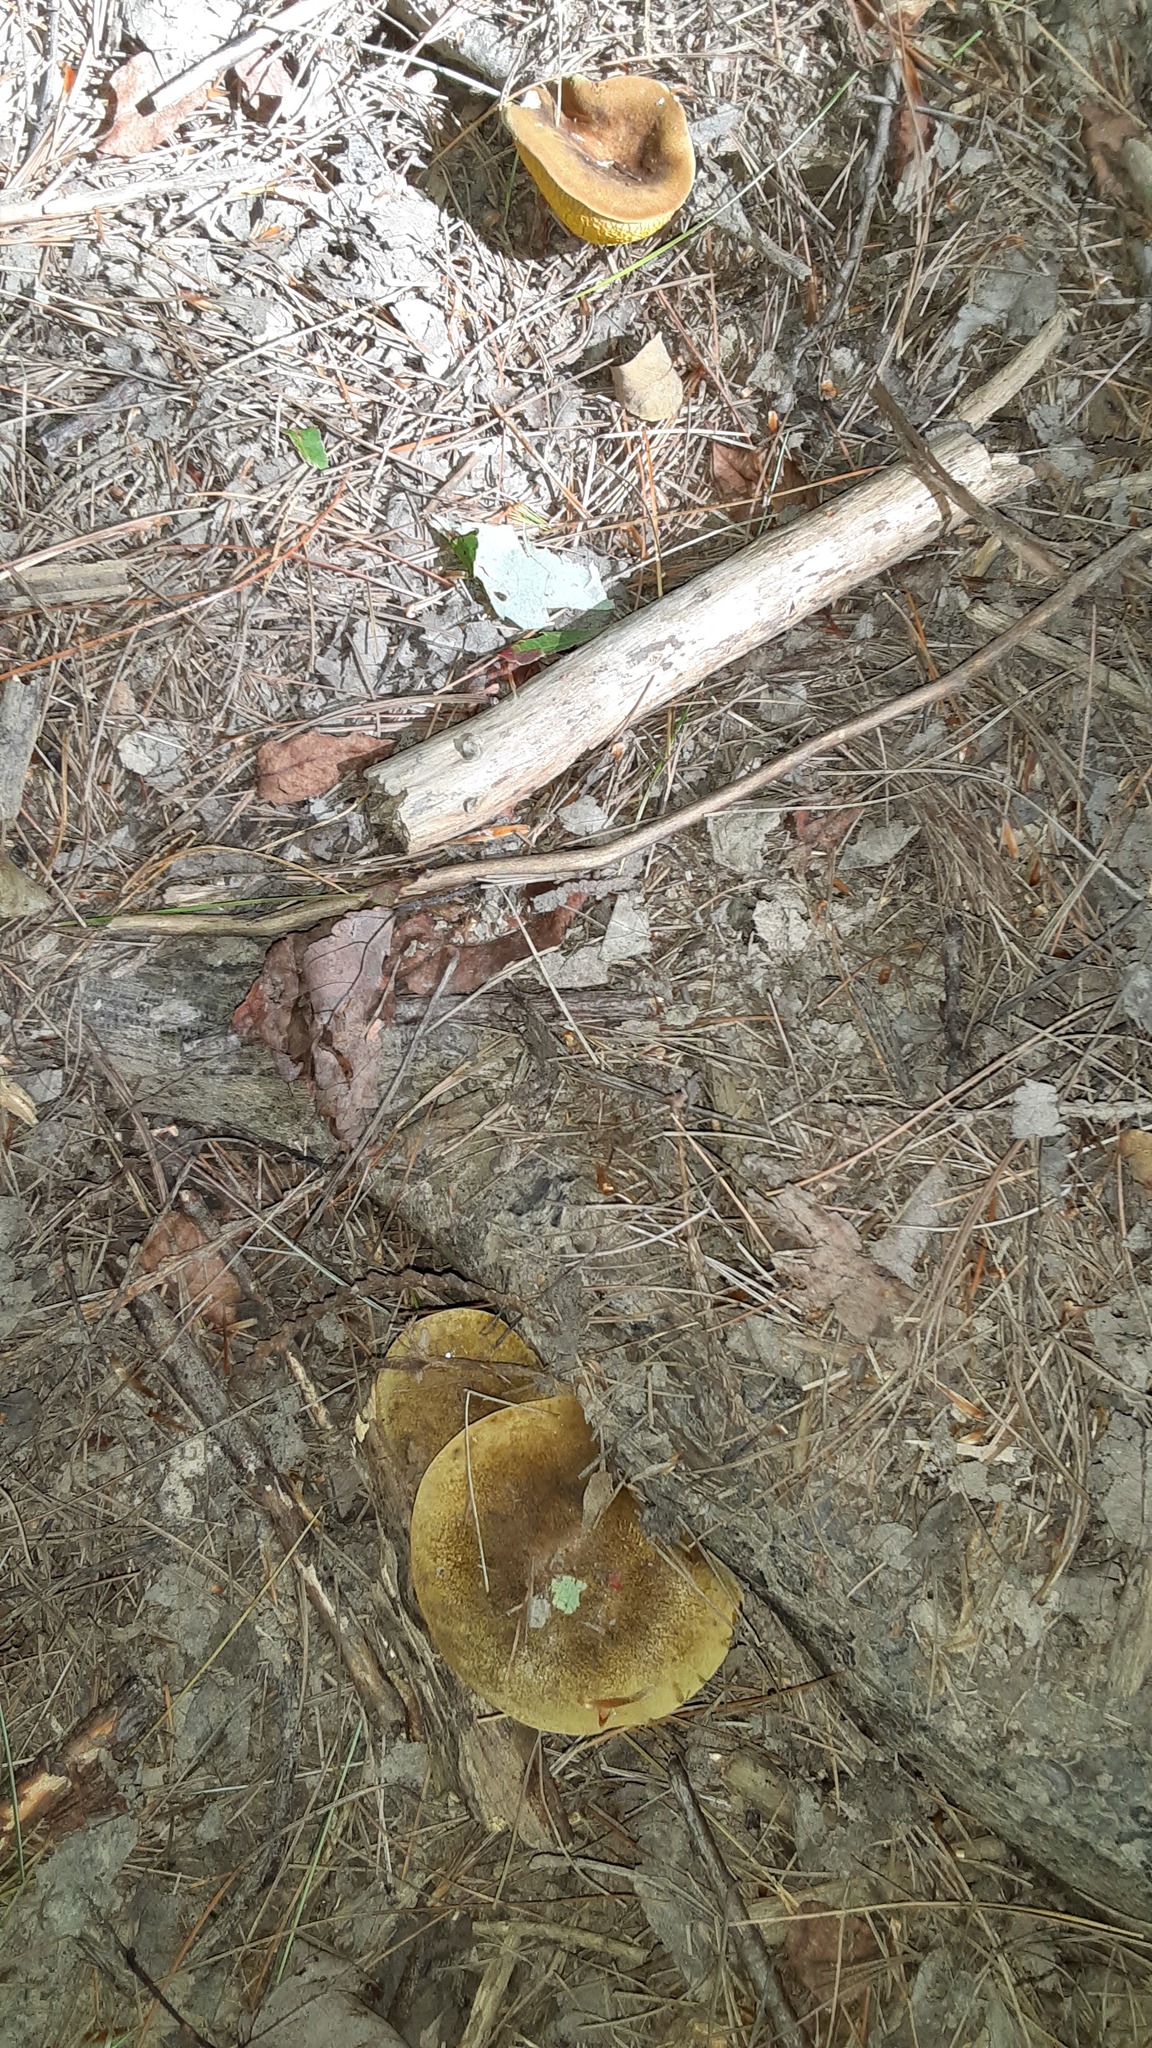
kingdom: Fungi
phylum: Basidiomycota
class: Agaricomycetes
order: Boletales
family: Boletinellaceae
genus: Boletinellus
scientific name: Boletinellus merulioides
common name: Ash tree bolete
